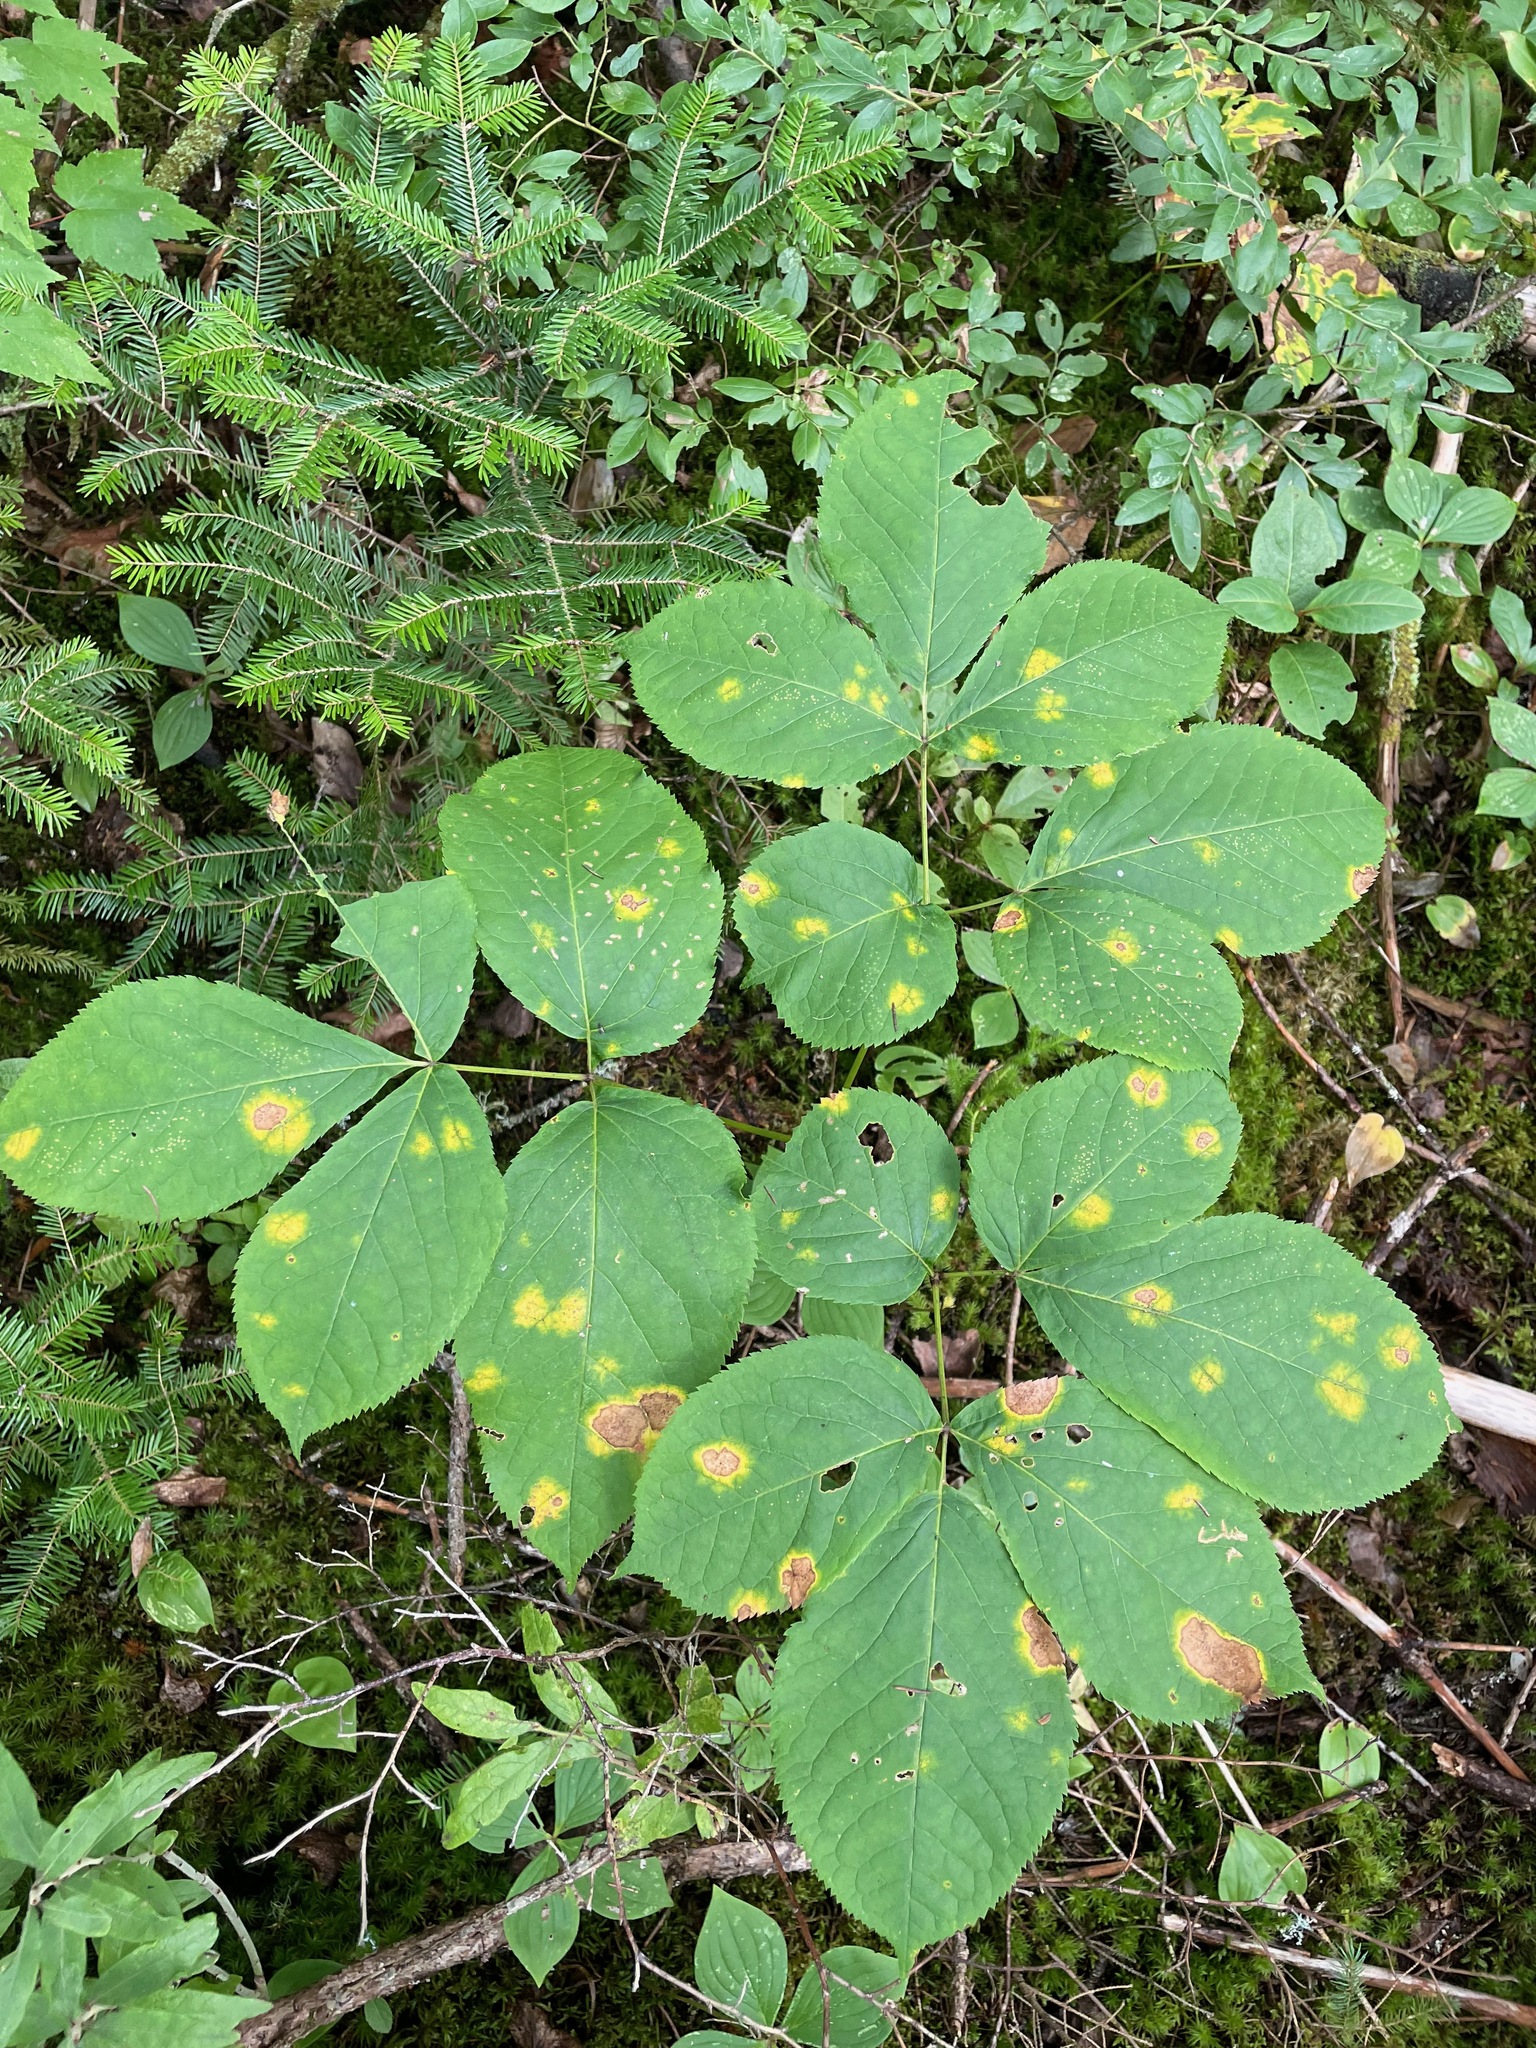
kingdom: Plantae
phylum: Tracheophyta
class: Magnoliopsida
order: Apiales
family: Araliaceae
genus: Aralia
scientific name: Aralia nudicaulis
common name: Wild sarsaparilla
